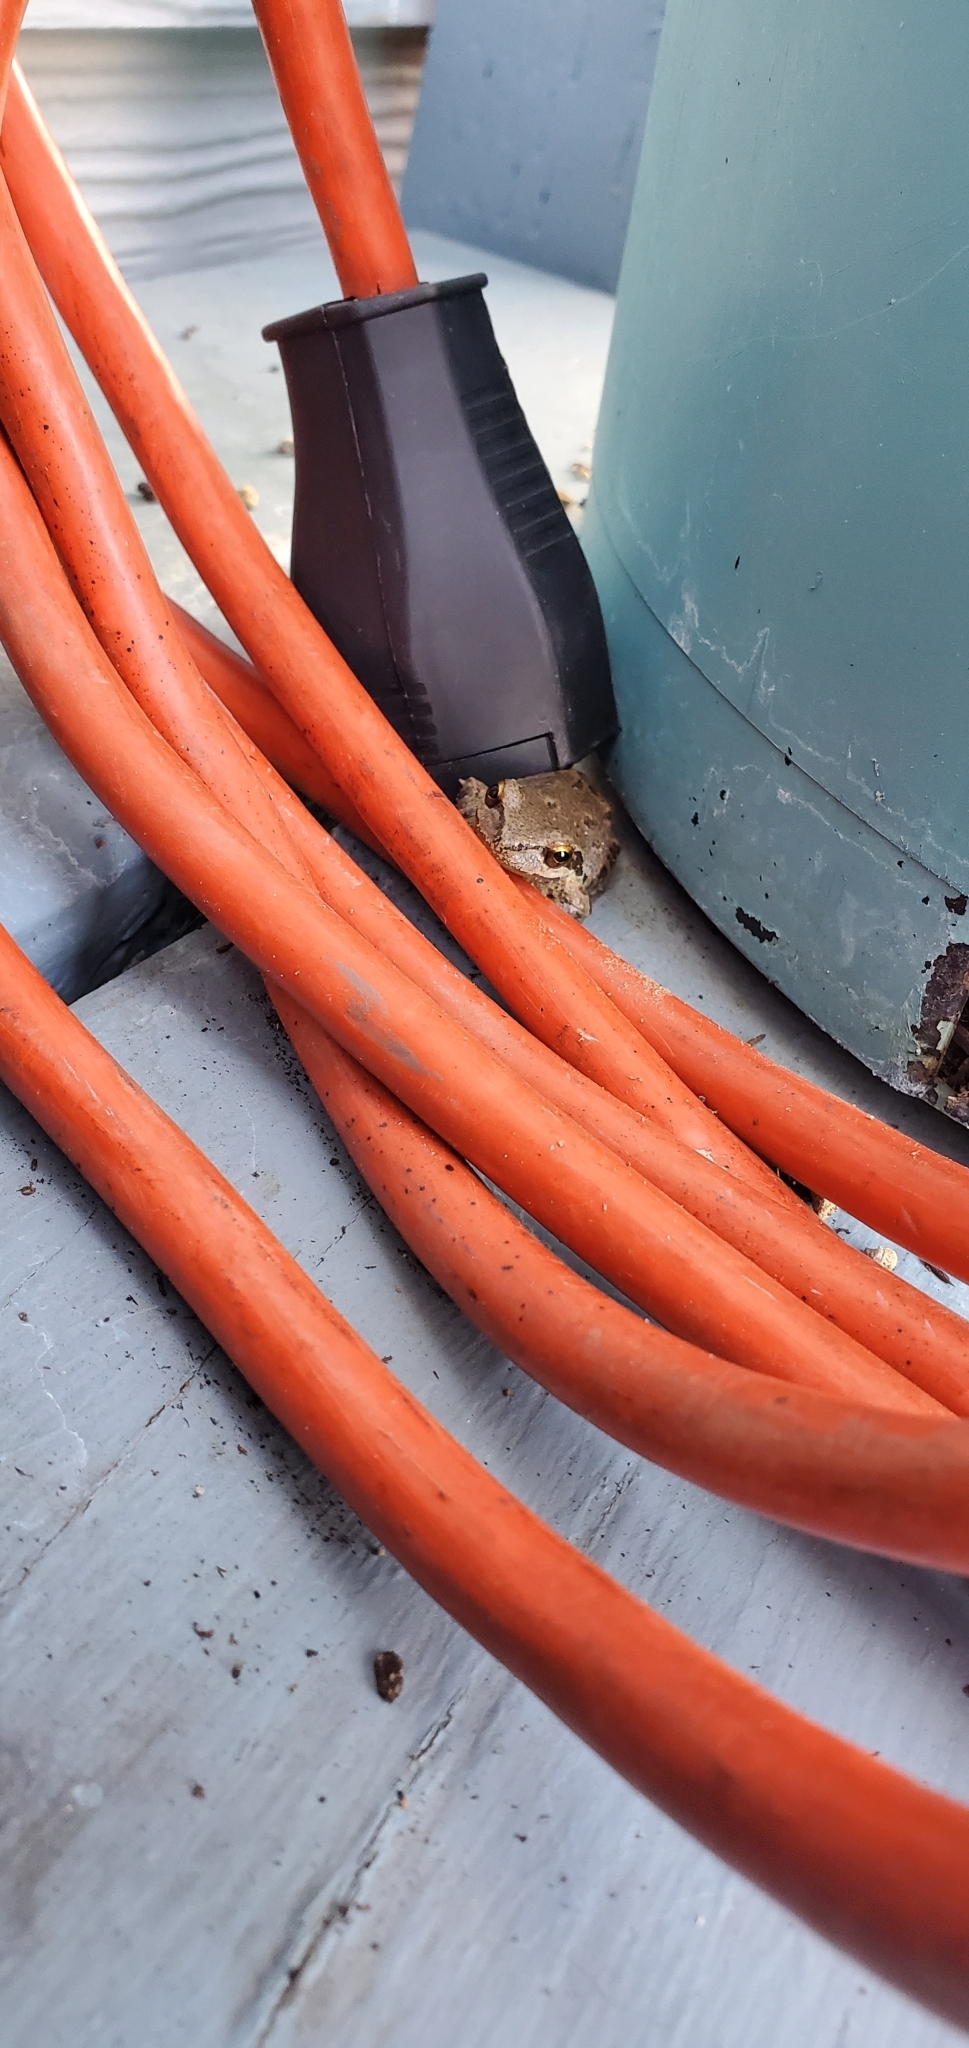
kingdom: Animalia
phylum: Chordata
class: Amphibia
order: Anura
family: Hylidae
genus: Pseudacris
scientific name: Pseudacris regilla
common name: Pacific chorus frog
